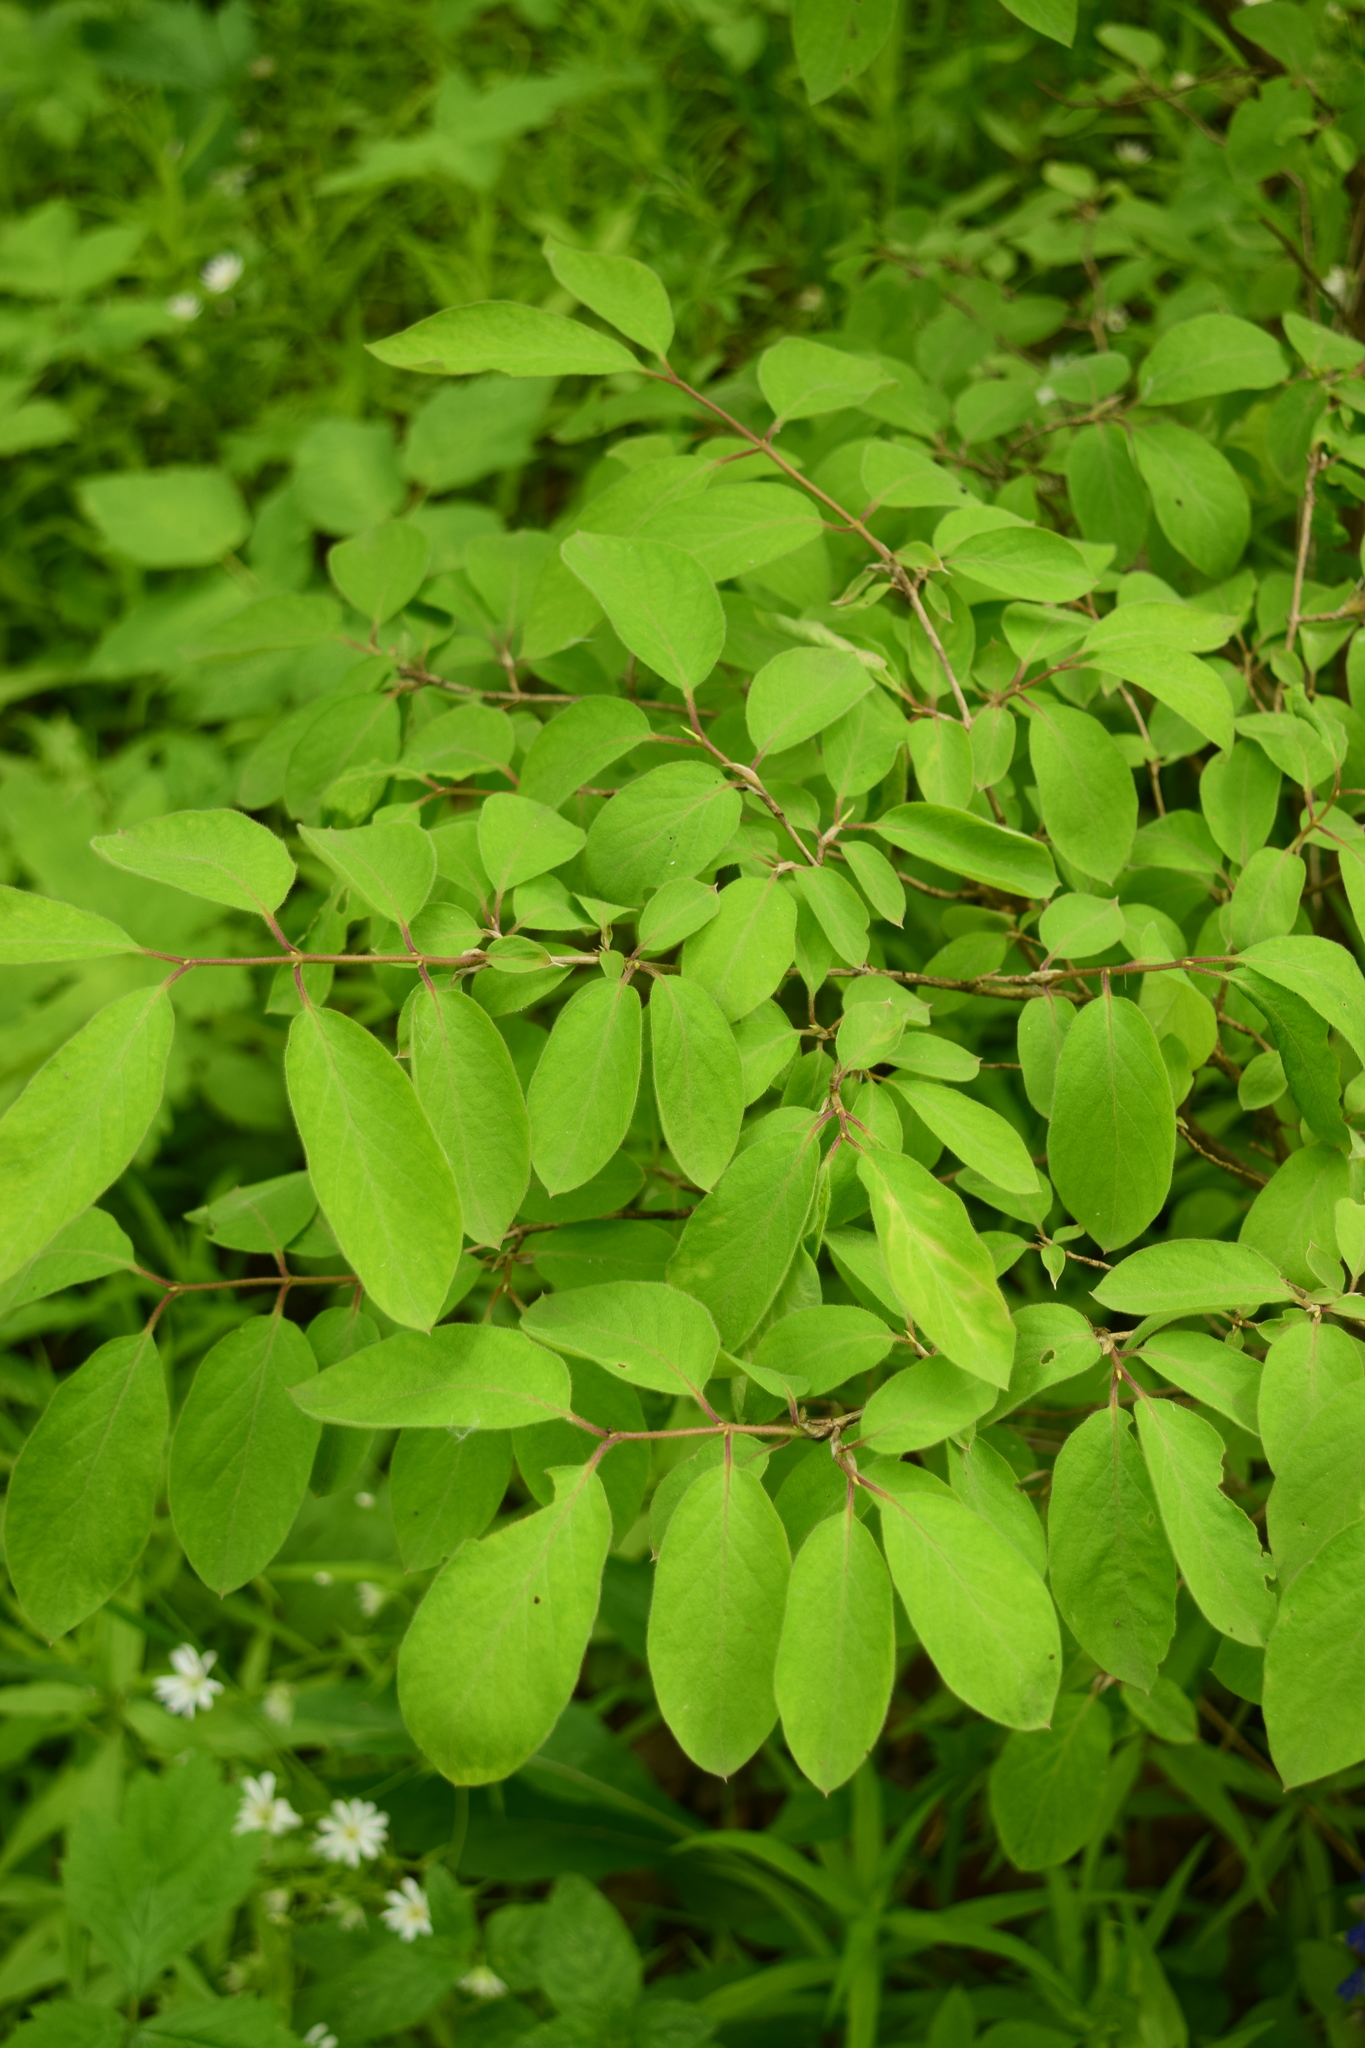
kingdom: Plantae
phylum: Tracheophyta
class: Magnoliopsida
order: Dipsacales
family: Caprifoliaceae
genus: Lonicera
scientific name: Lonicera xylosteum
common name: Fly honeysuckle
